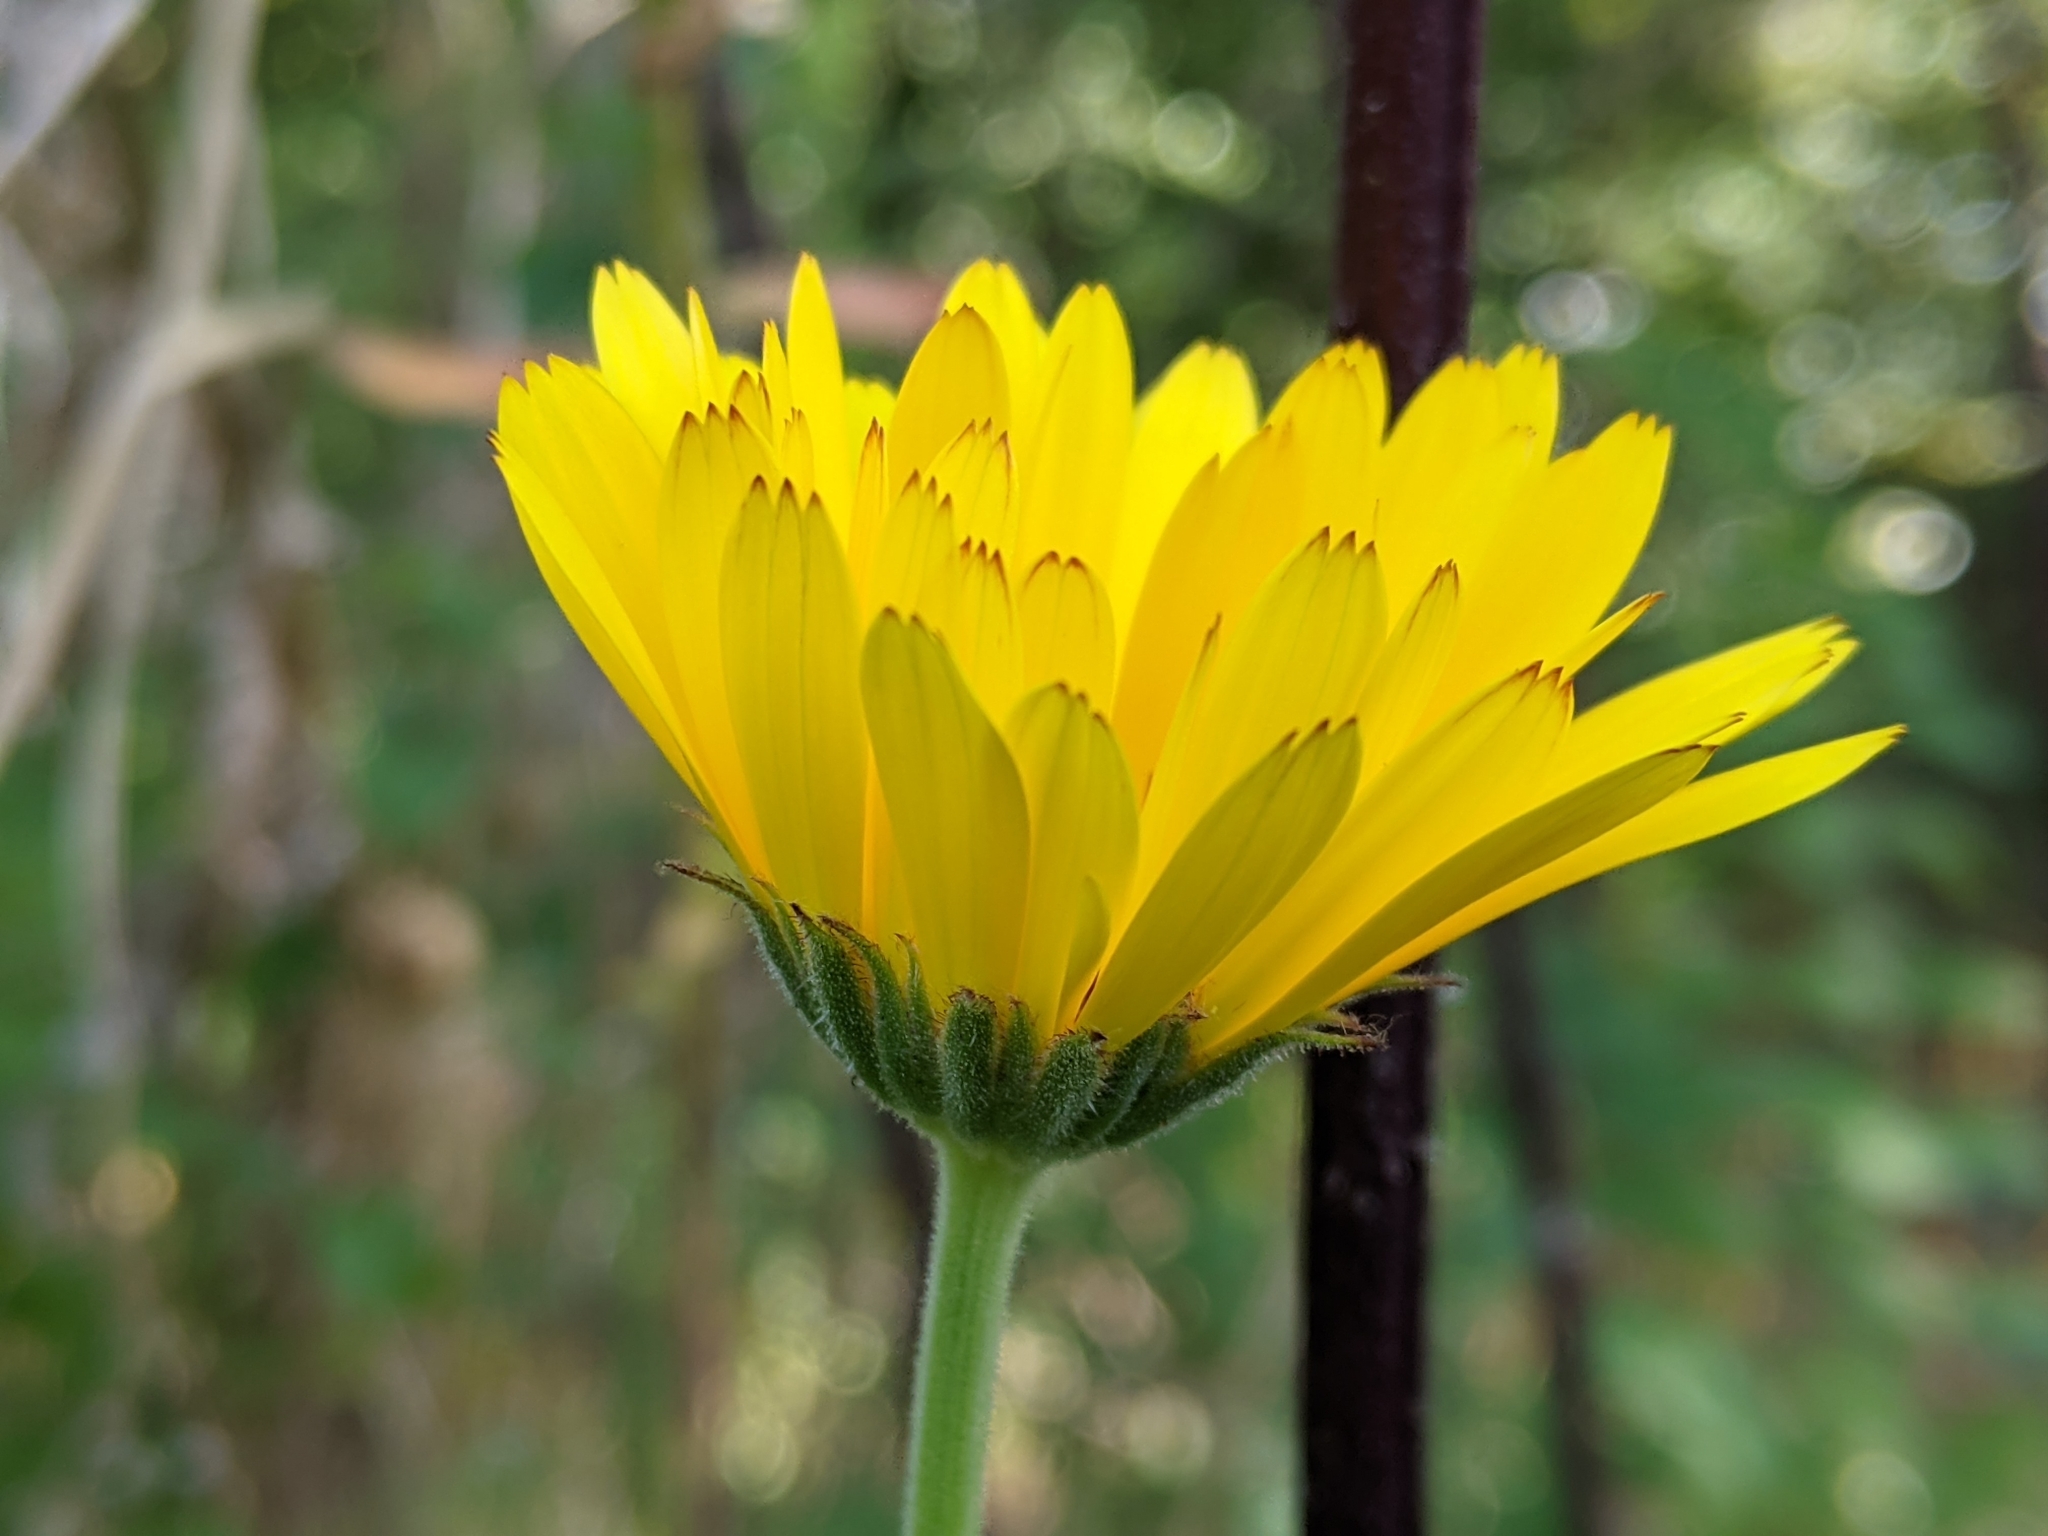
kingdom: Plantae
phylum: Tracheophyta
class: Magnoliopsida
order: Asterales
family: Asteraceae
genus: Calendula
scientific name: Calendula officinalis
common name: Pot marigold
